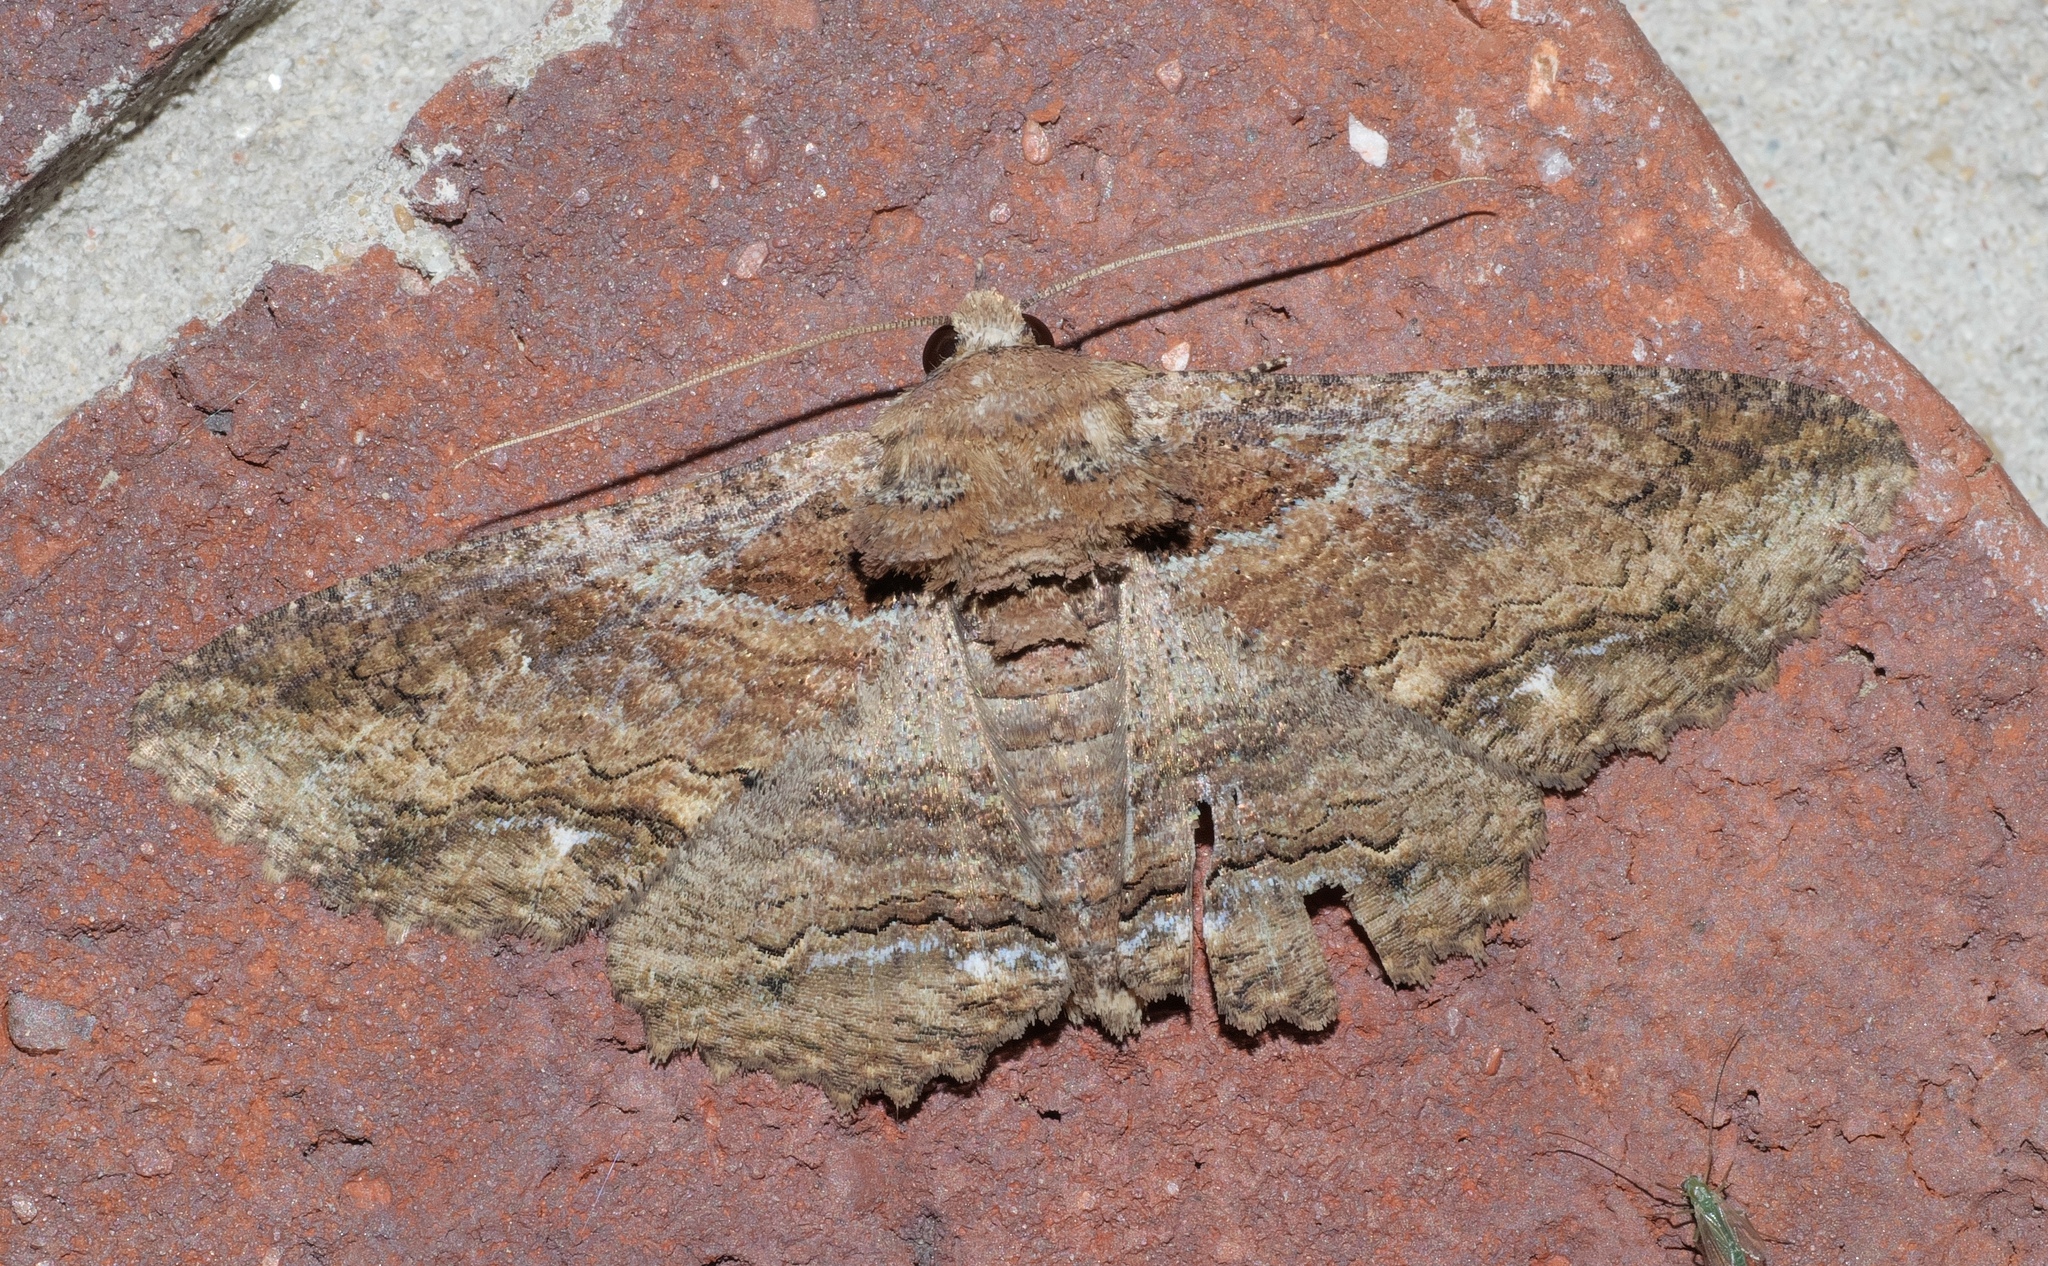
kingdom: Animalia
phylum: Arthropoda
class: Insecta
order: Lepidoptera
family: Erebidae
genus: Zale
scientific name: Zale lunata
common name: Lunate zale moth
